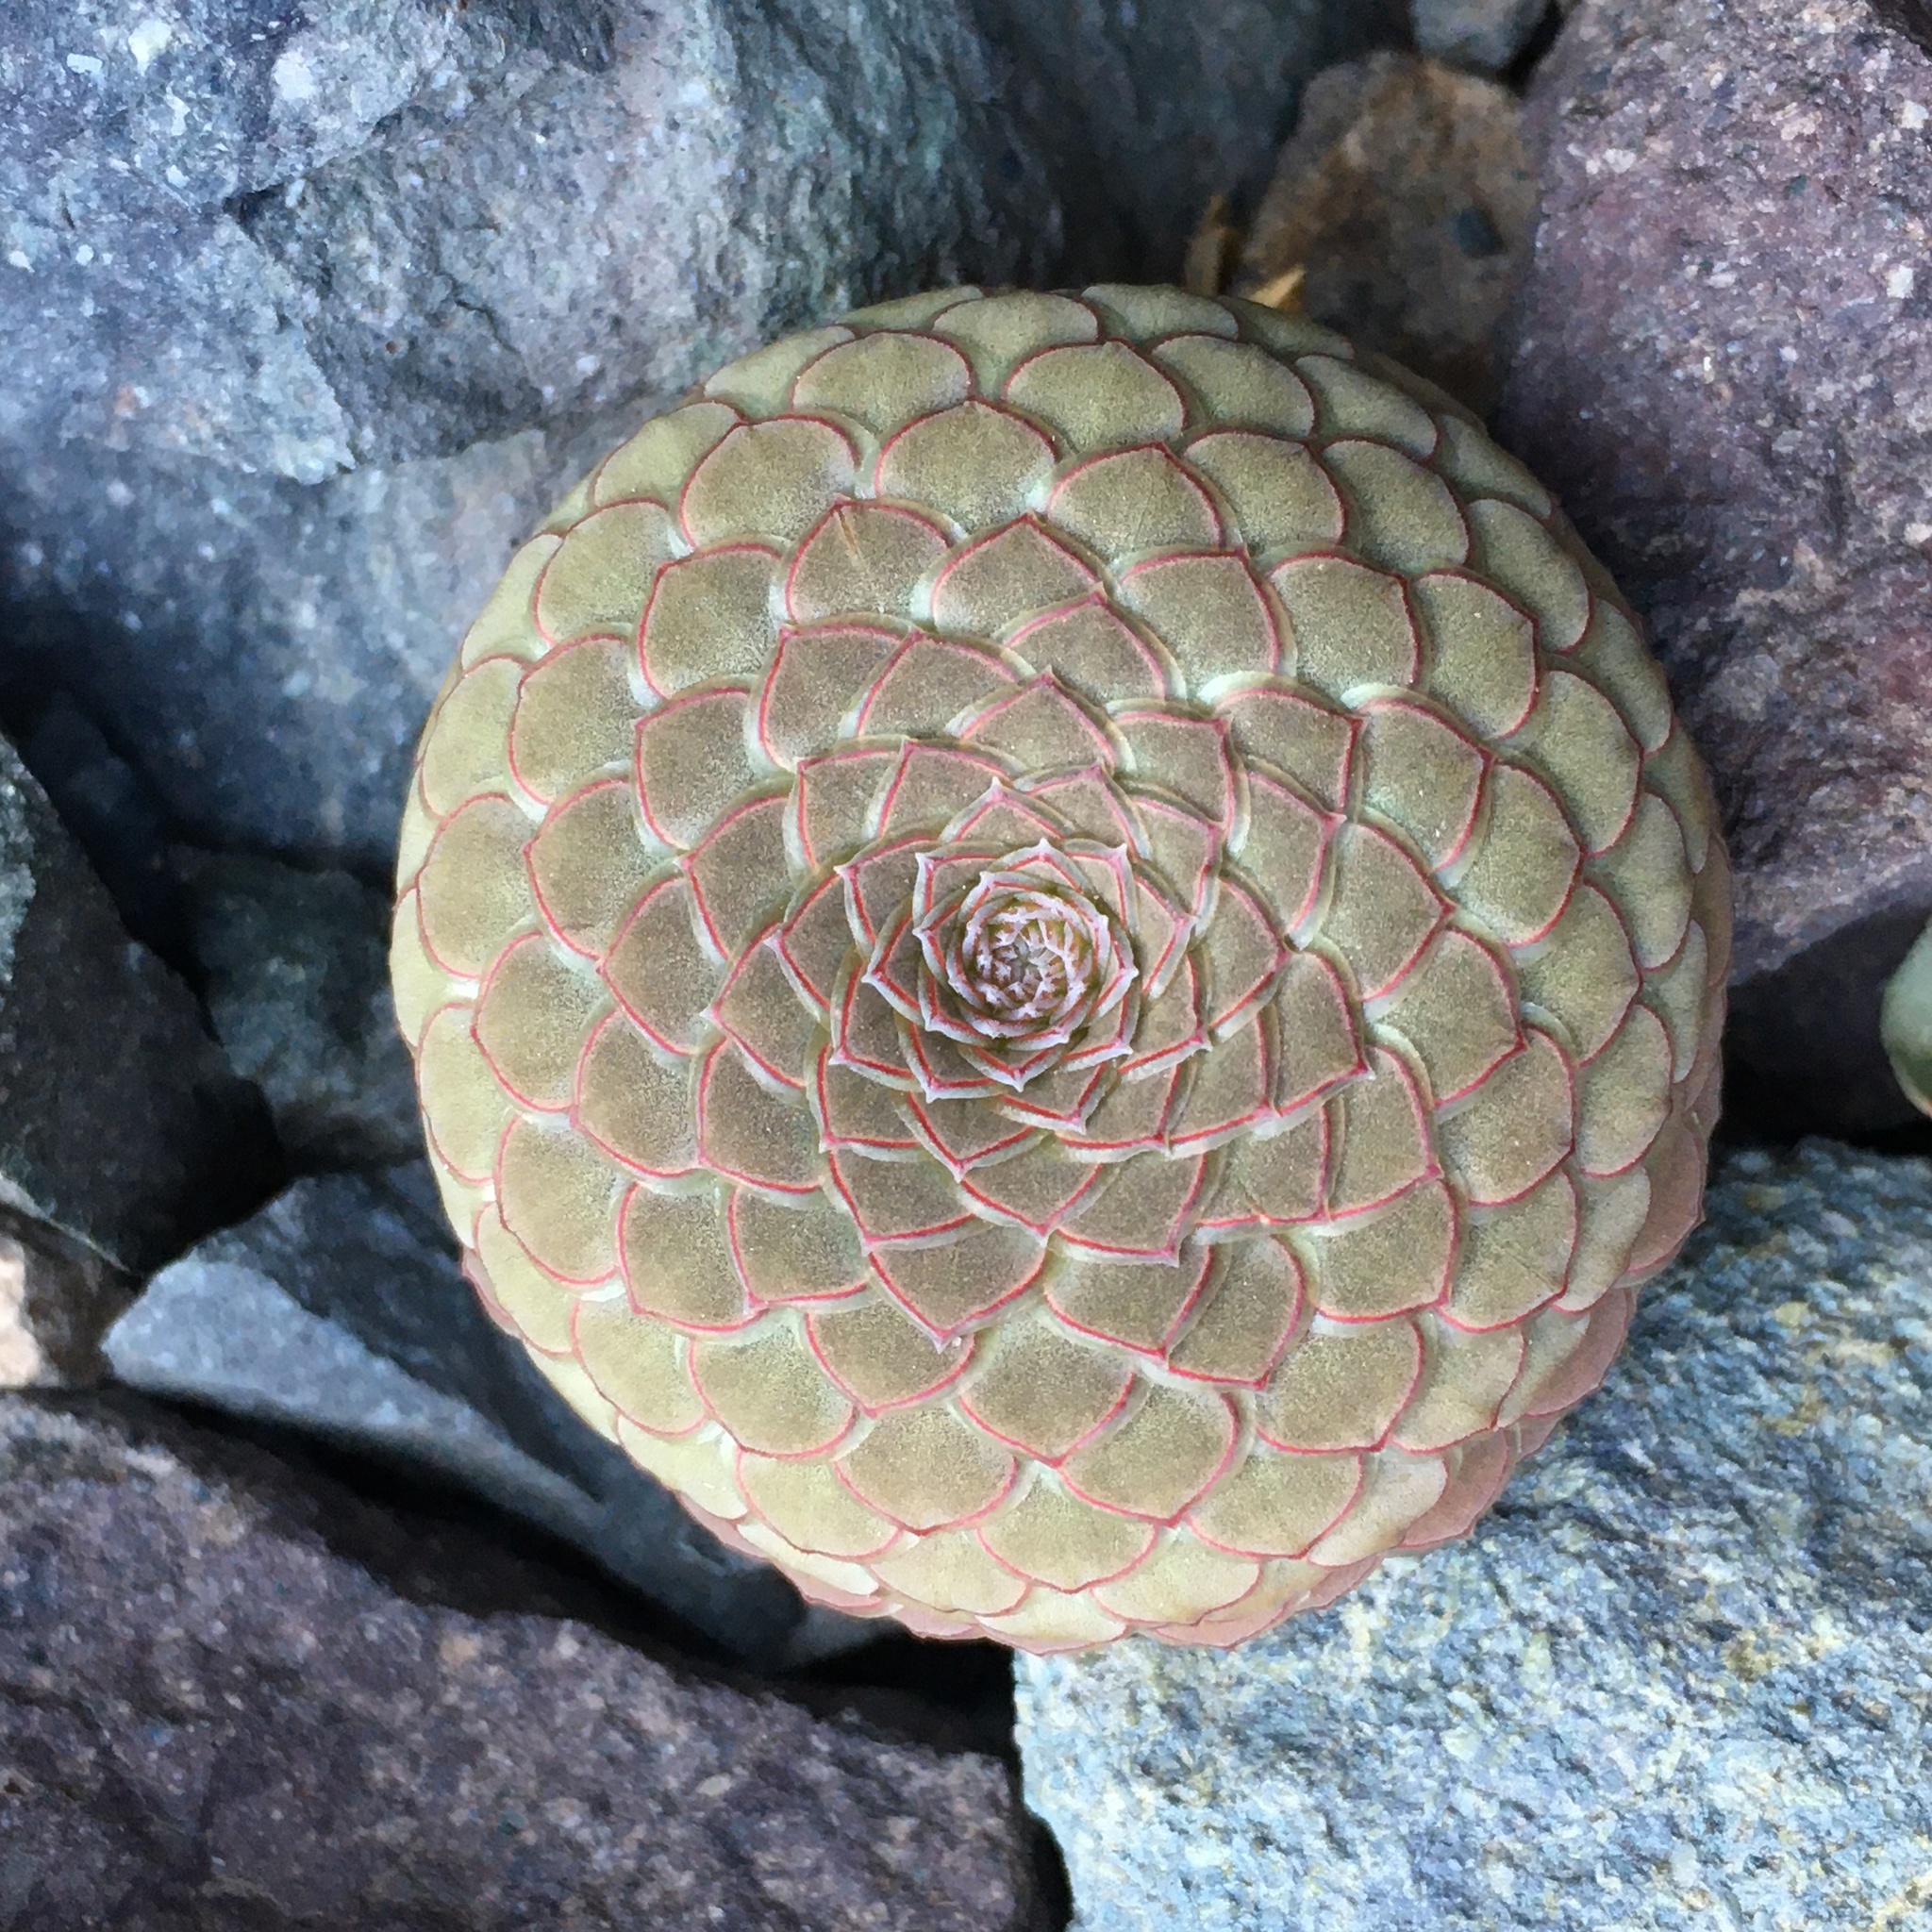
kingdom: Plantae
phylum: Tracheophyta
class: Magnoliopsida
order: Malpighiales
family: Violaceae
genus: Viola
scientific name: Viola atropurpurea
